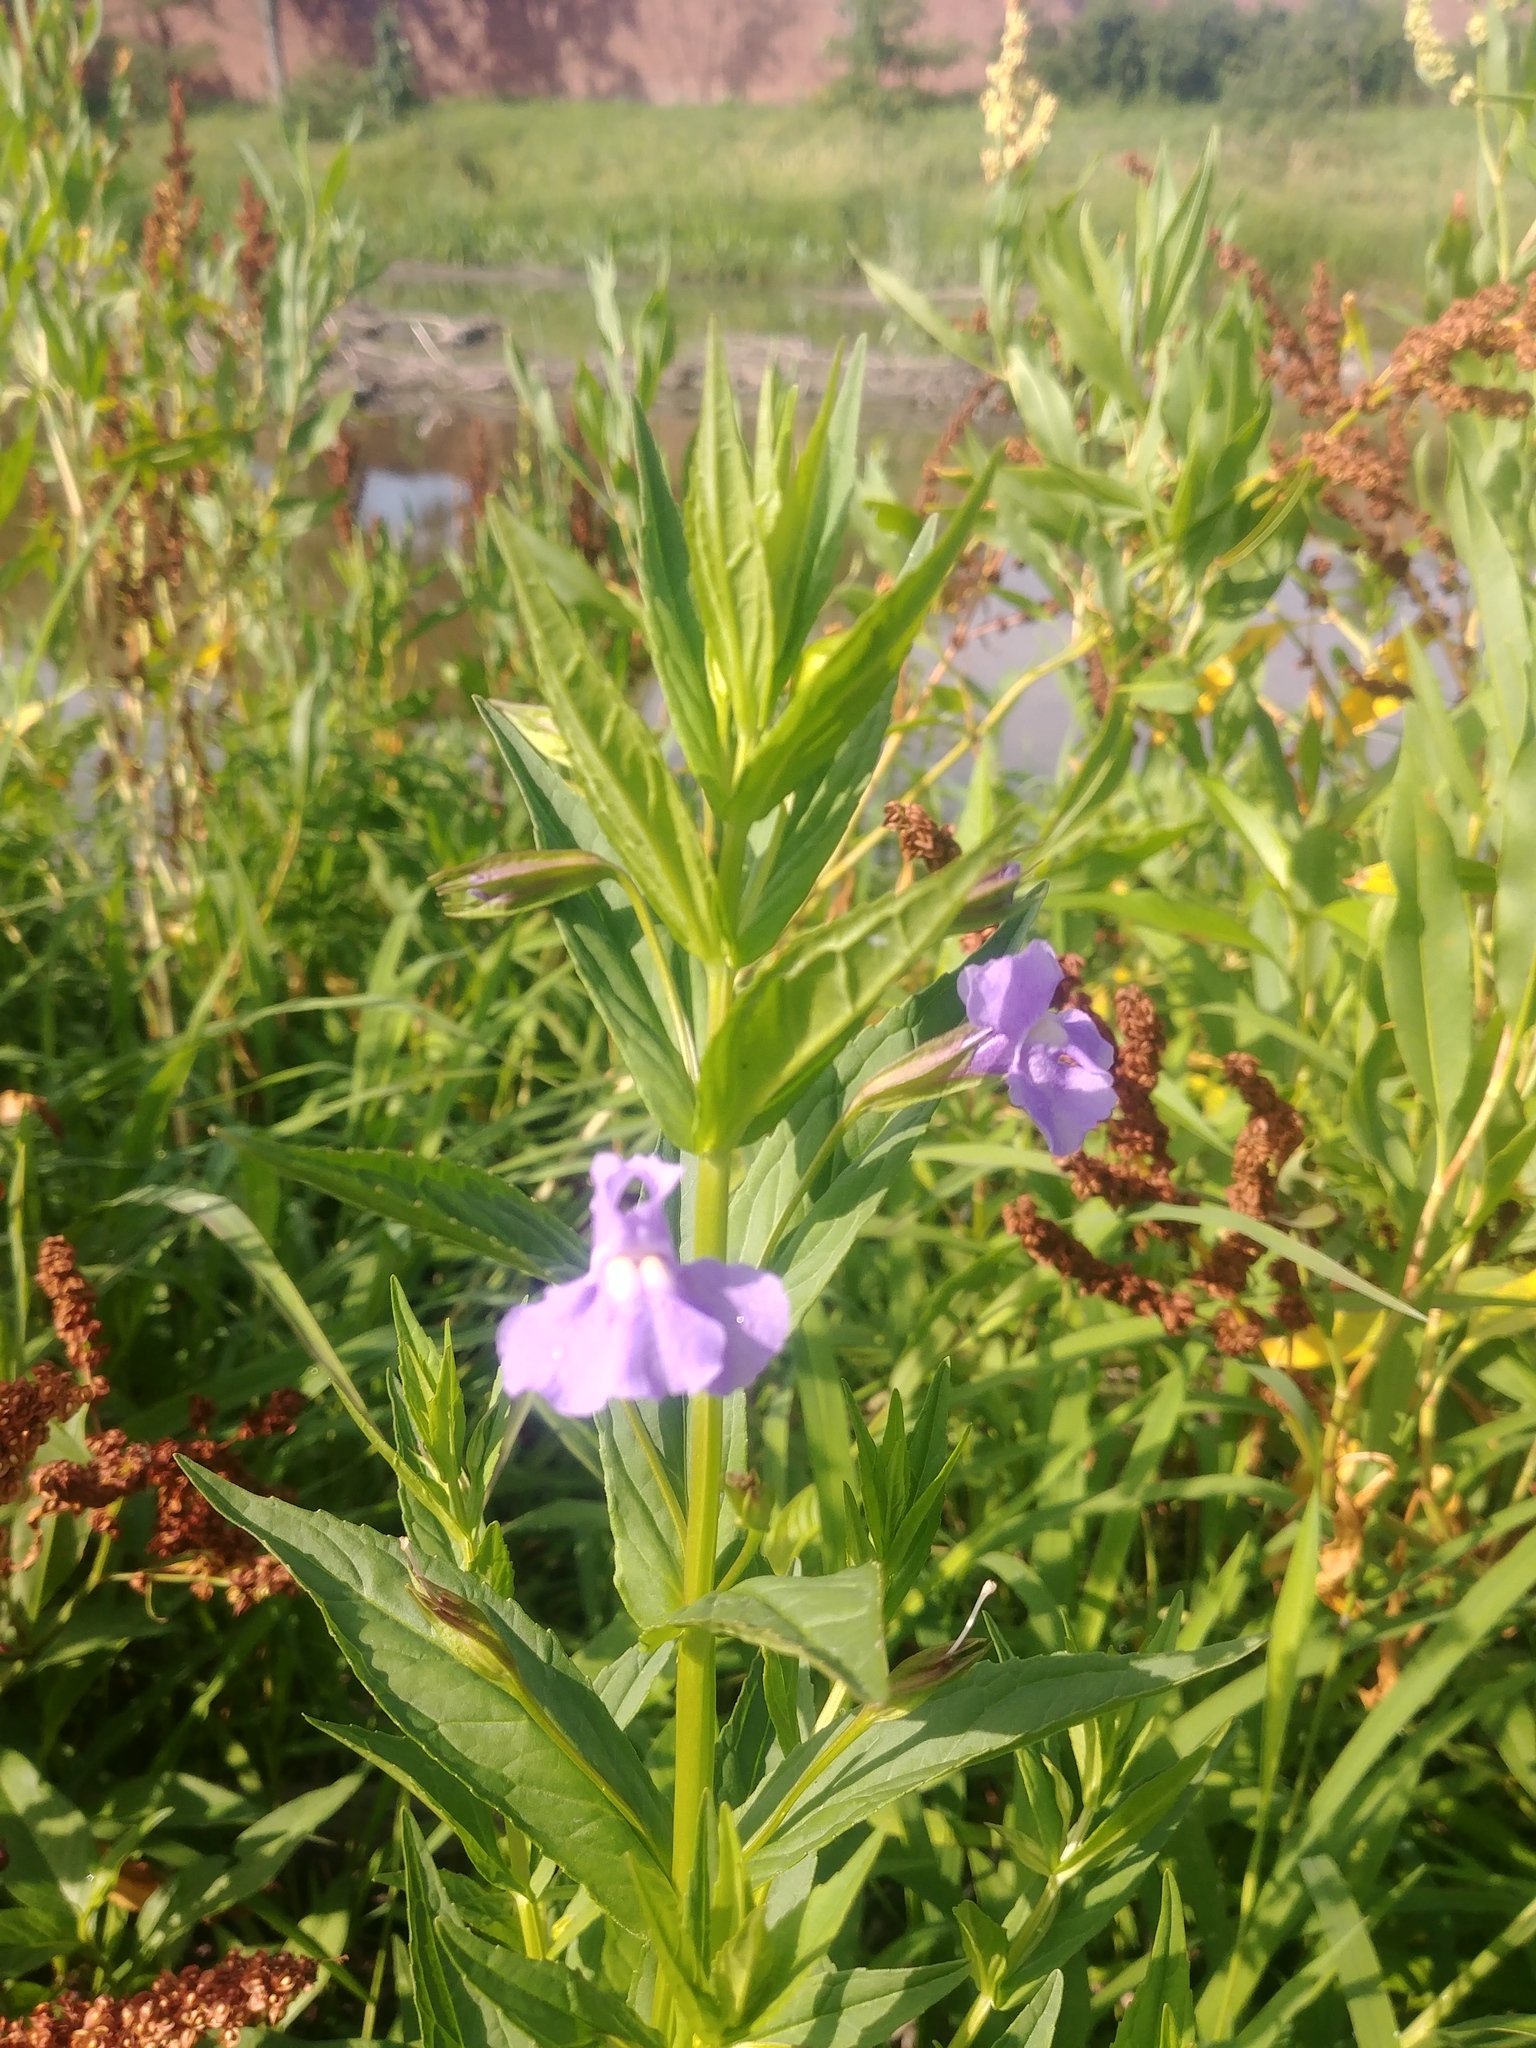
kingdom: Plantae
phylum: Tracheophyta
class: Magnoliopsida
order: Lamiales
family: Phrymaceae
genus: Mimulus
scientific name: Mimulus ringens
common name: Allegheny monkeyflower
